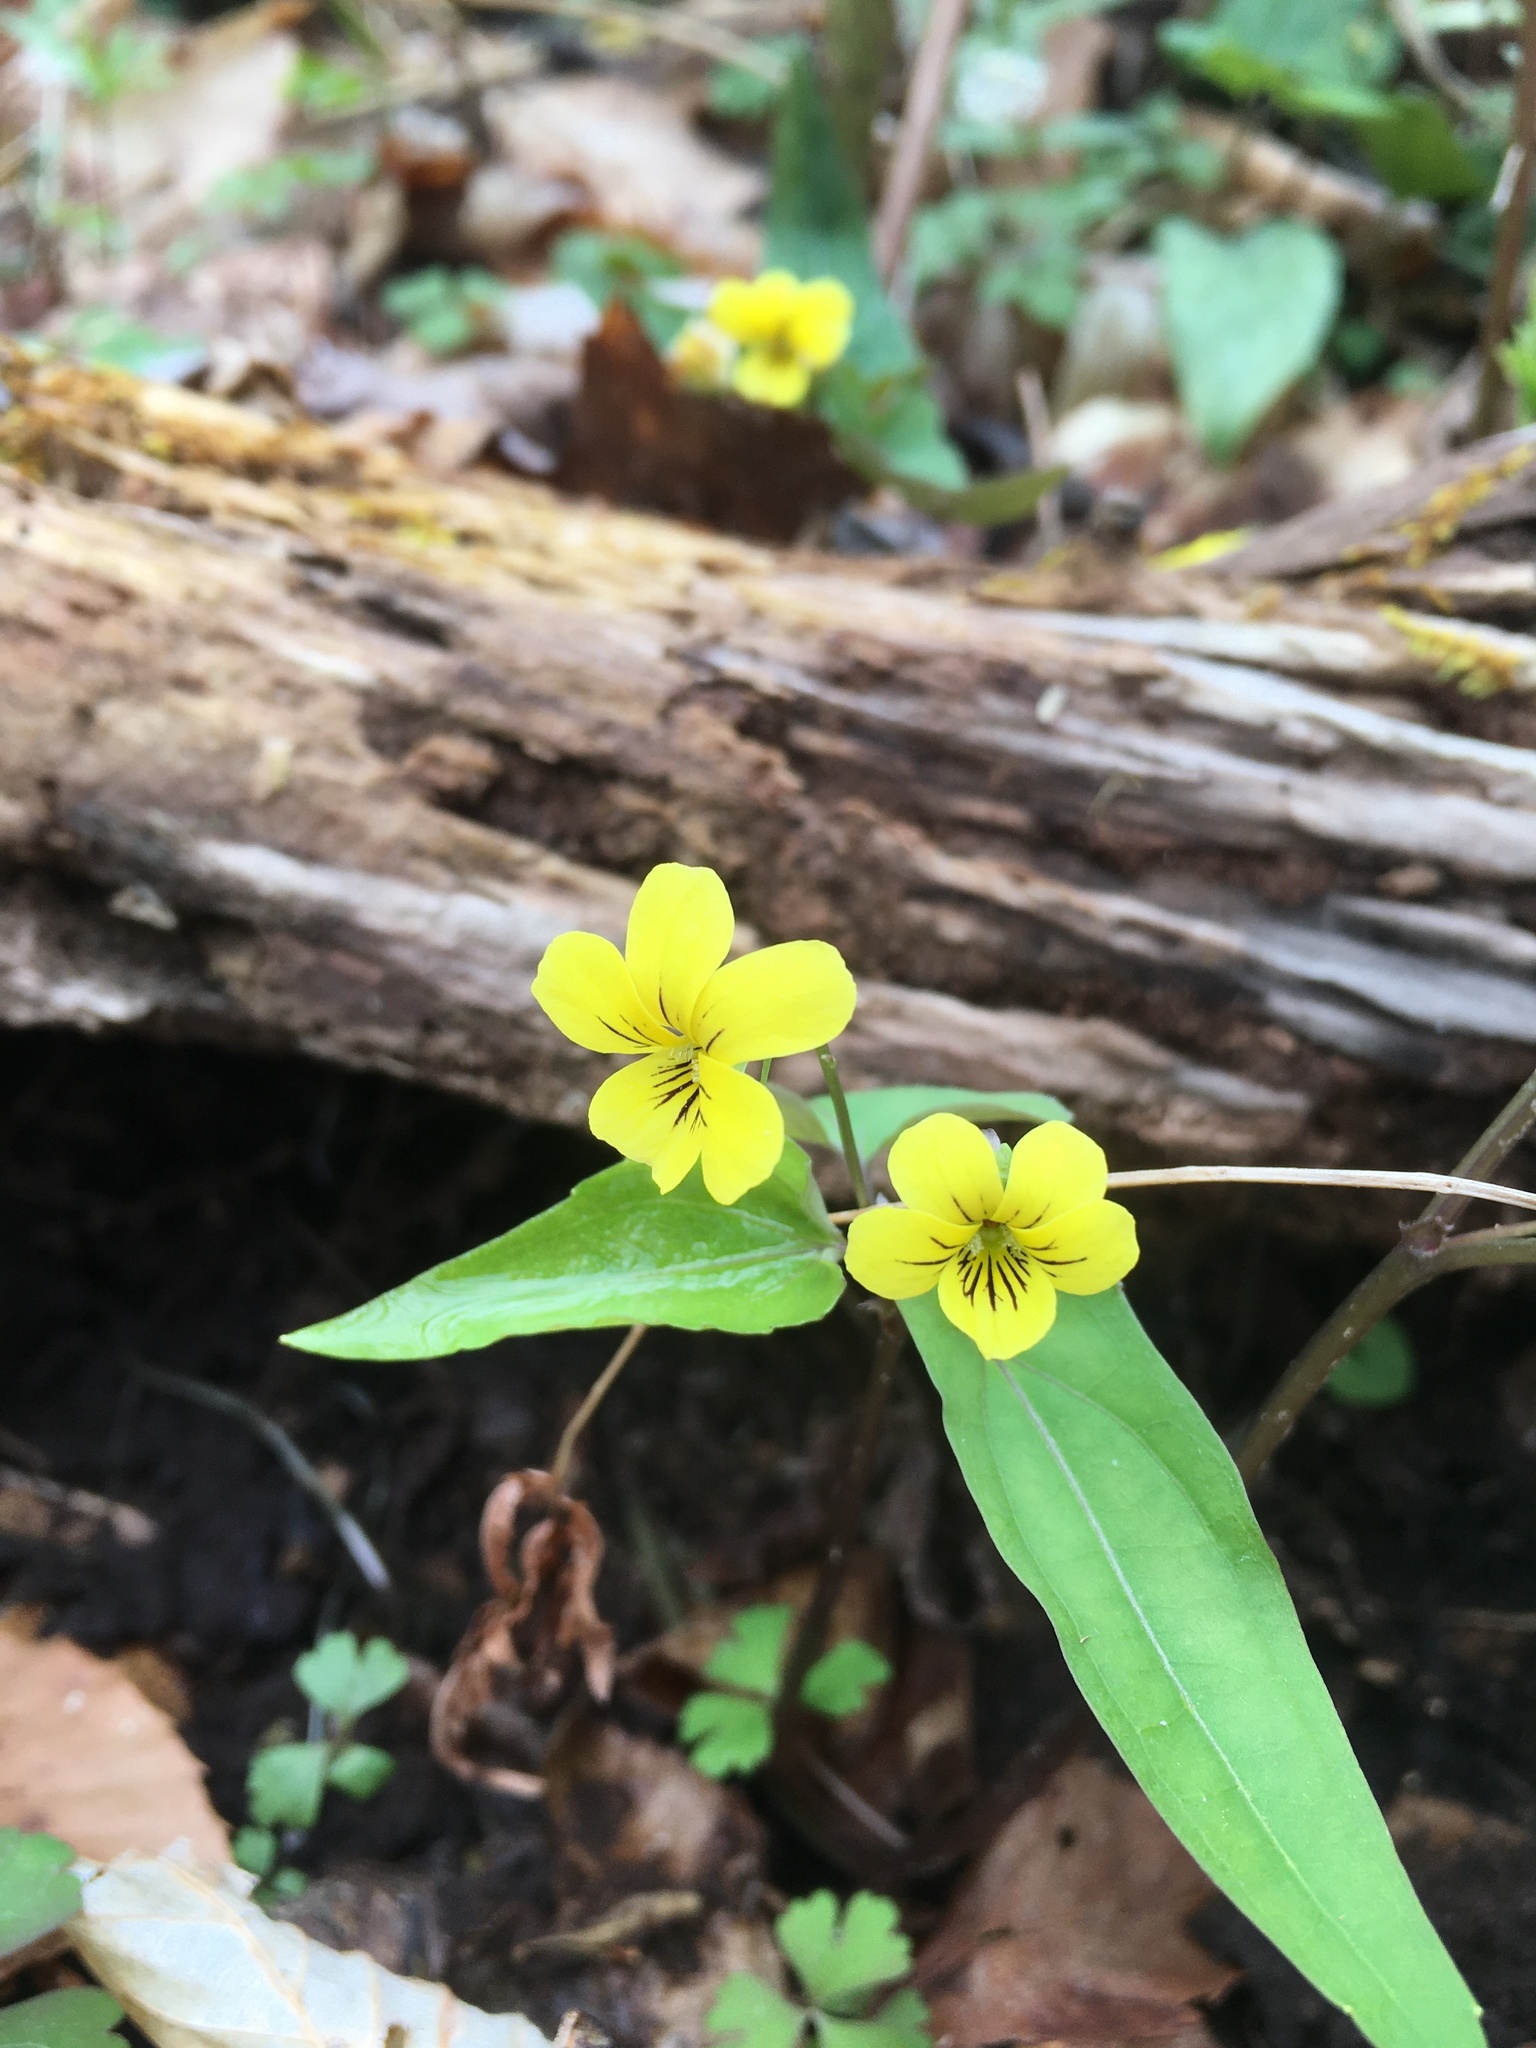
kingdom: Plantae
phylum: Tracheophyta
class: Magnoliopsida
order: Malpighiales
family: Violaceae
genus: Viola
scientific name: Viola hastata
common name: Spear-leaf violet
